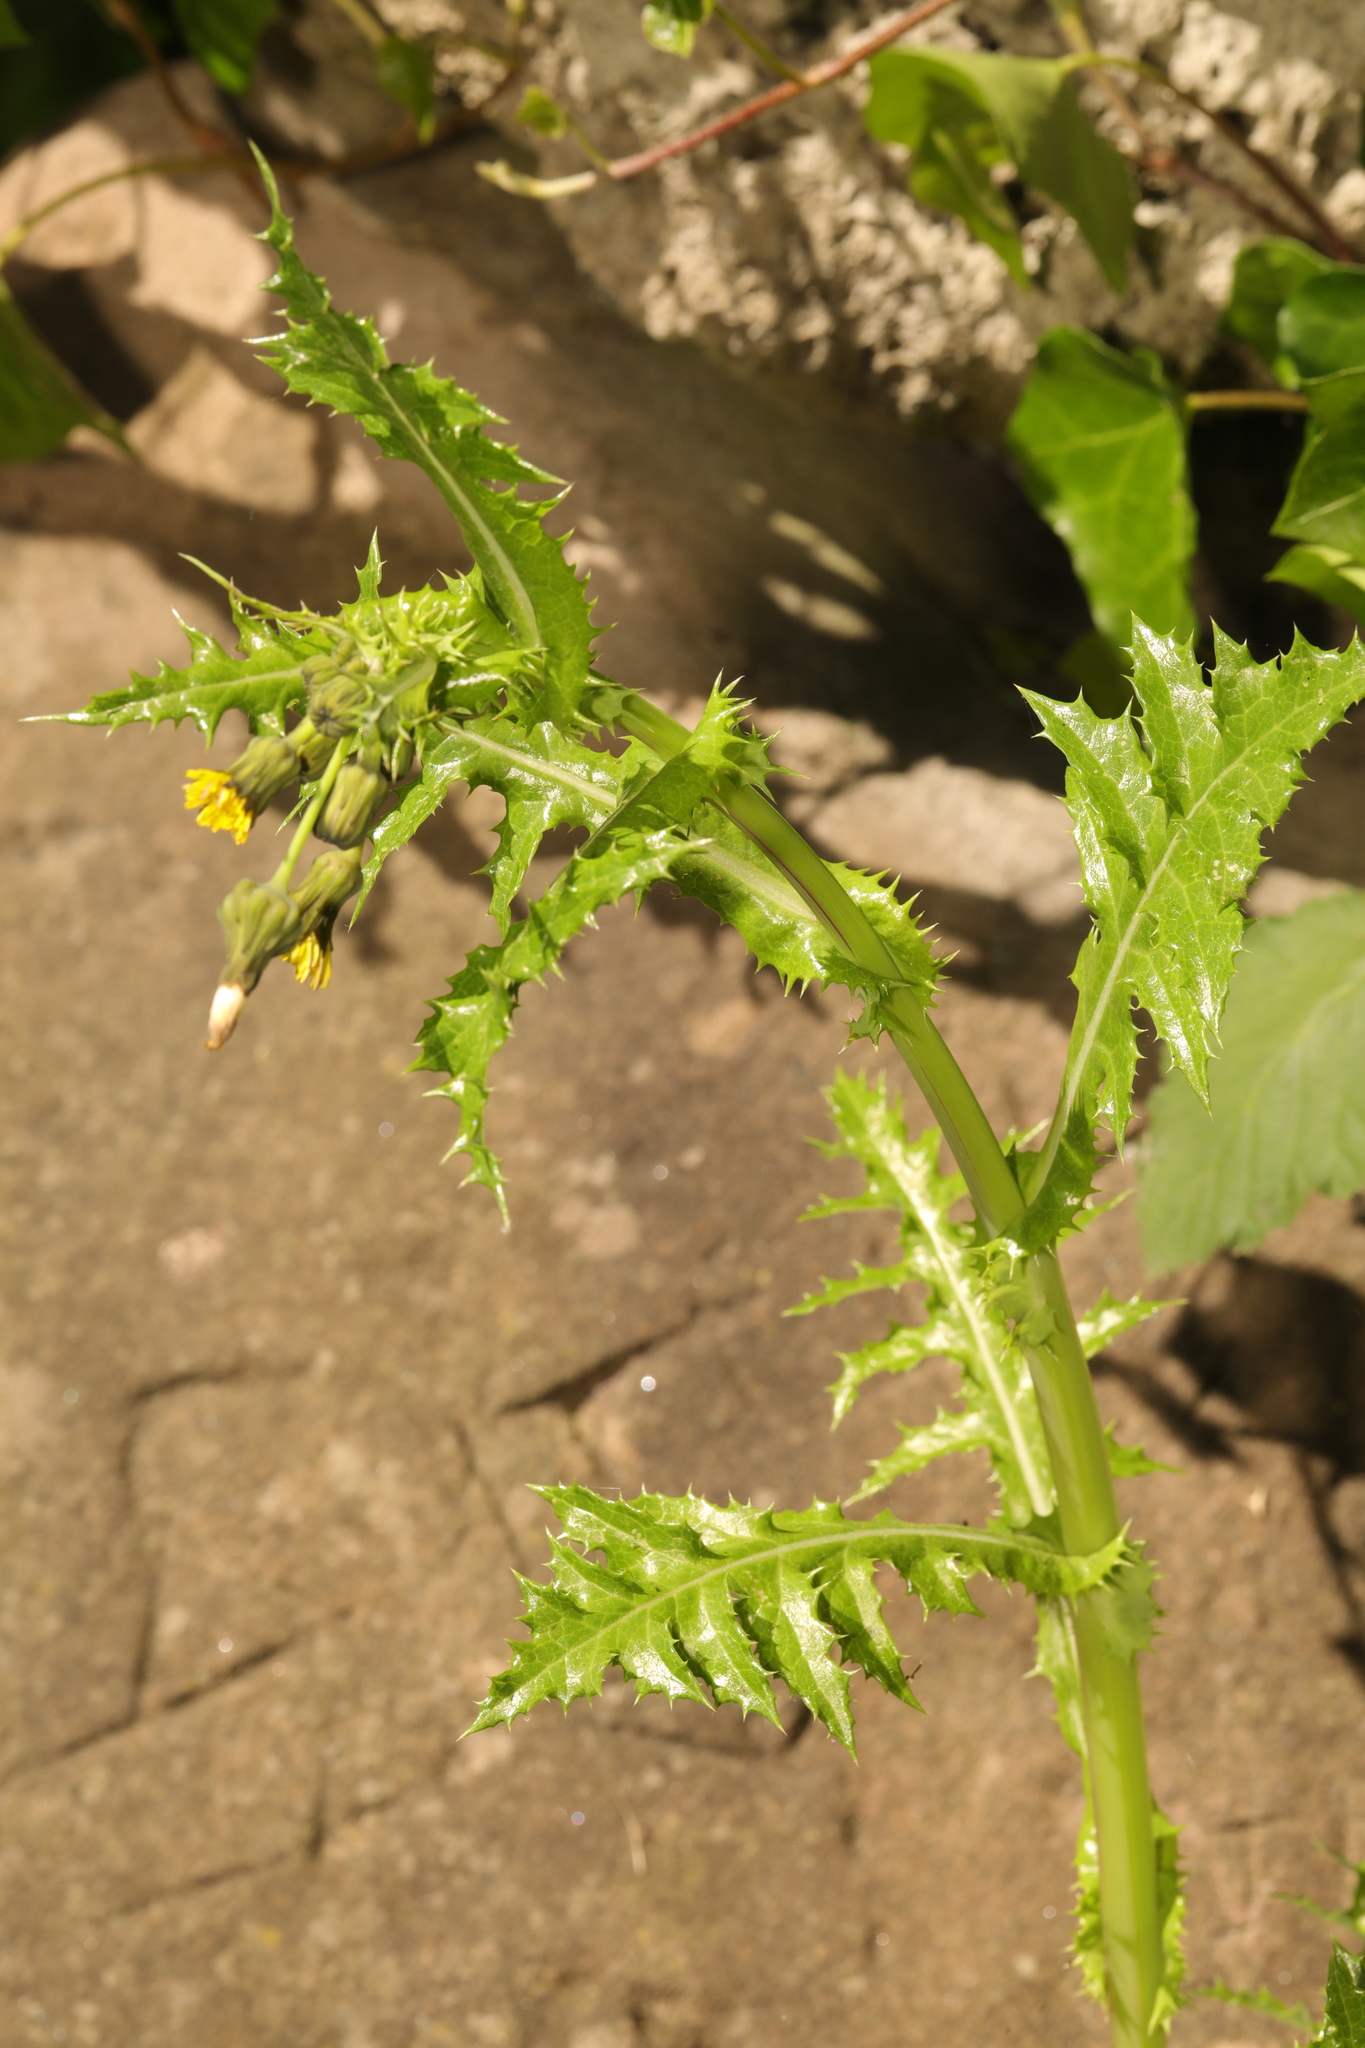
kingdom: Plantae
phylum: Tracheophyta
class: Magnoliopsida
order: Asterales
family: Asteraceae
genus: Sonchus
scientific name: Sonchus asper
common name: Prickly sow-thistle
